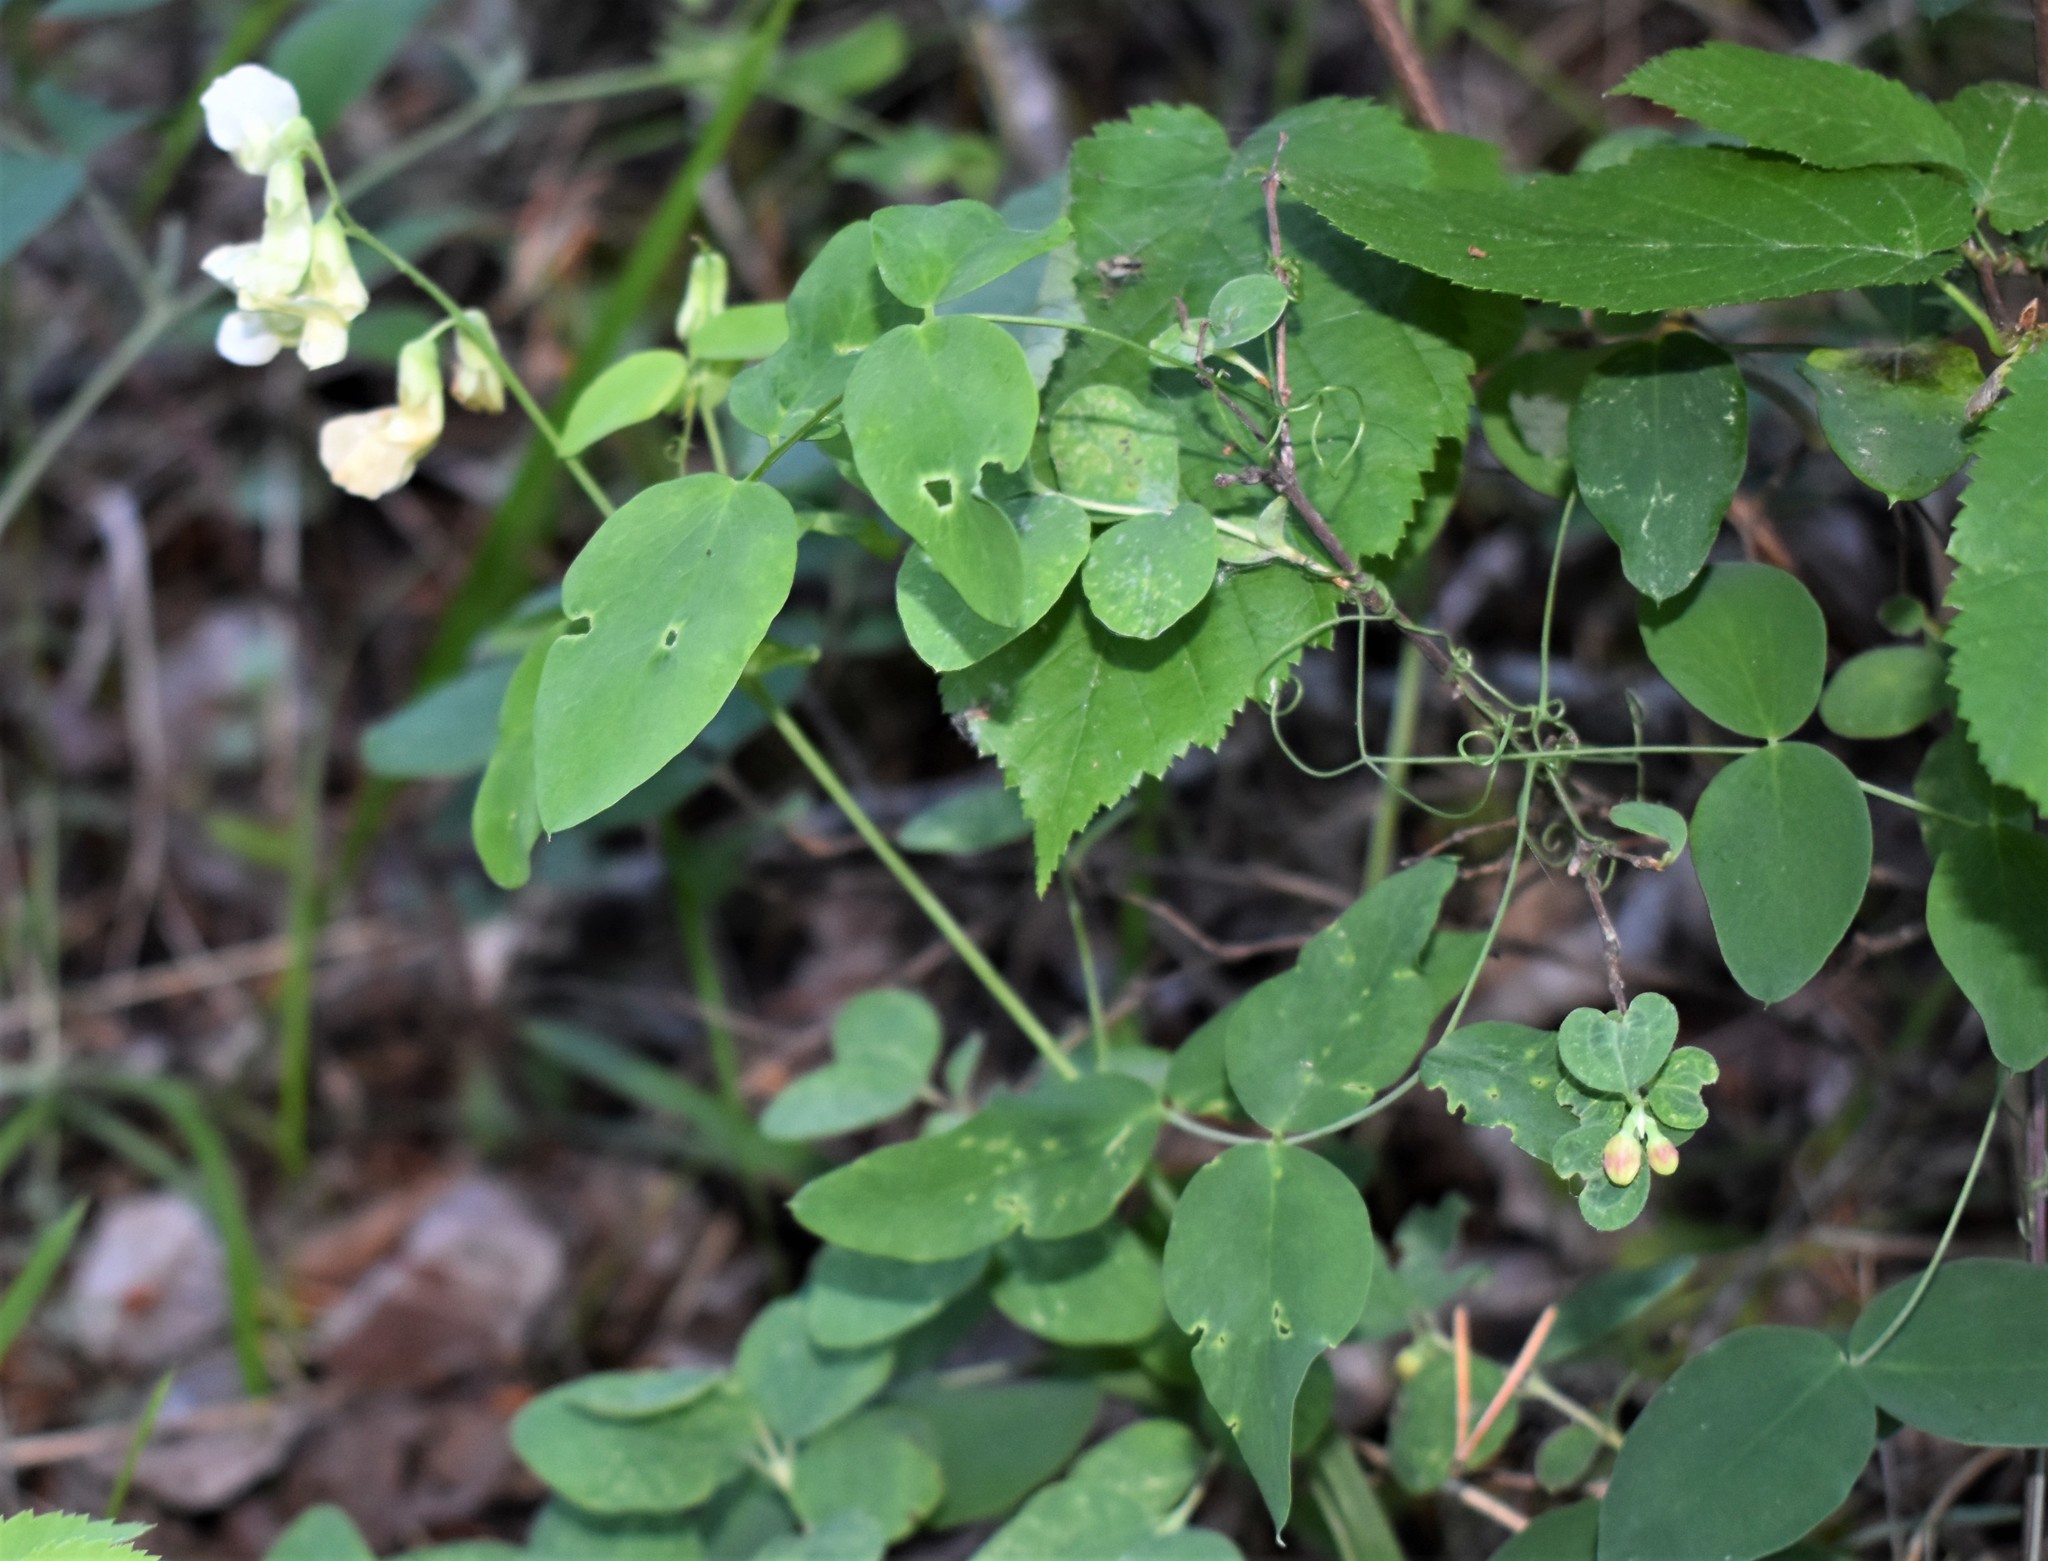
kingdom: Plantae
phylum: Tracheophyta
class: Magnoliopsida
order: Fabales
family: Fabaceae
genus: Lathyrus
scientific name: Lathyrus ochroleucus
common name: Pale vetchling
